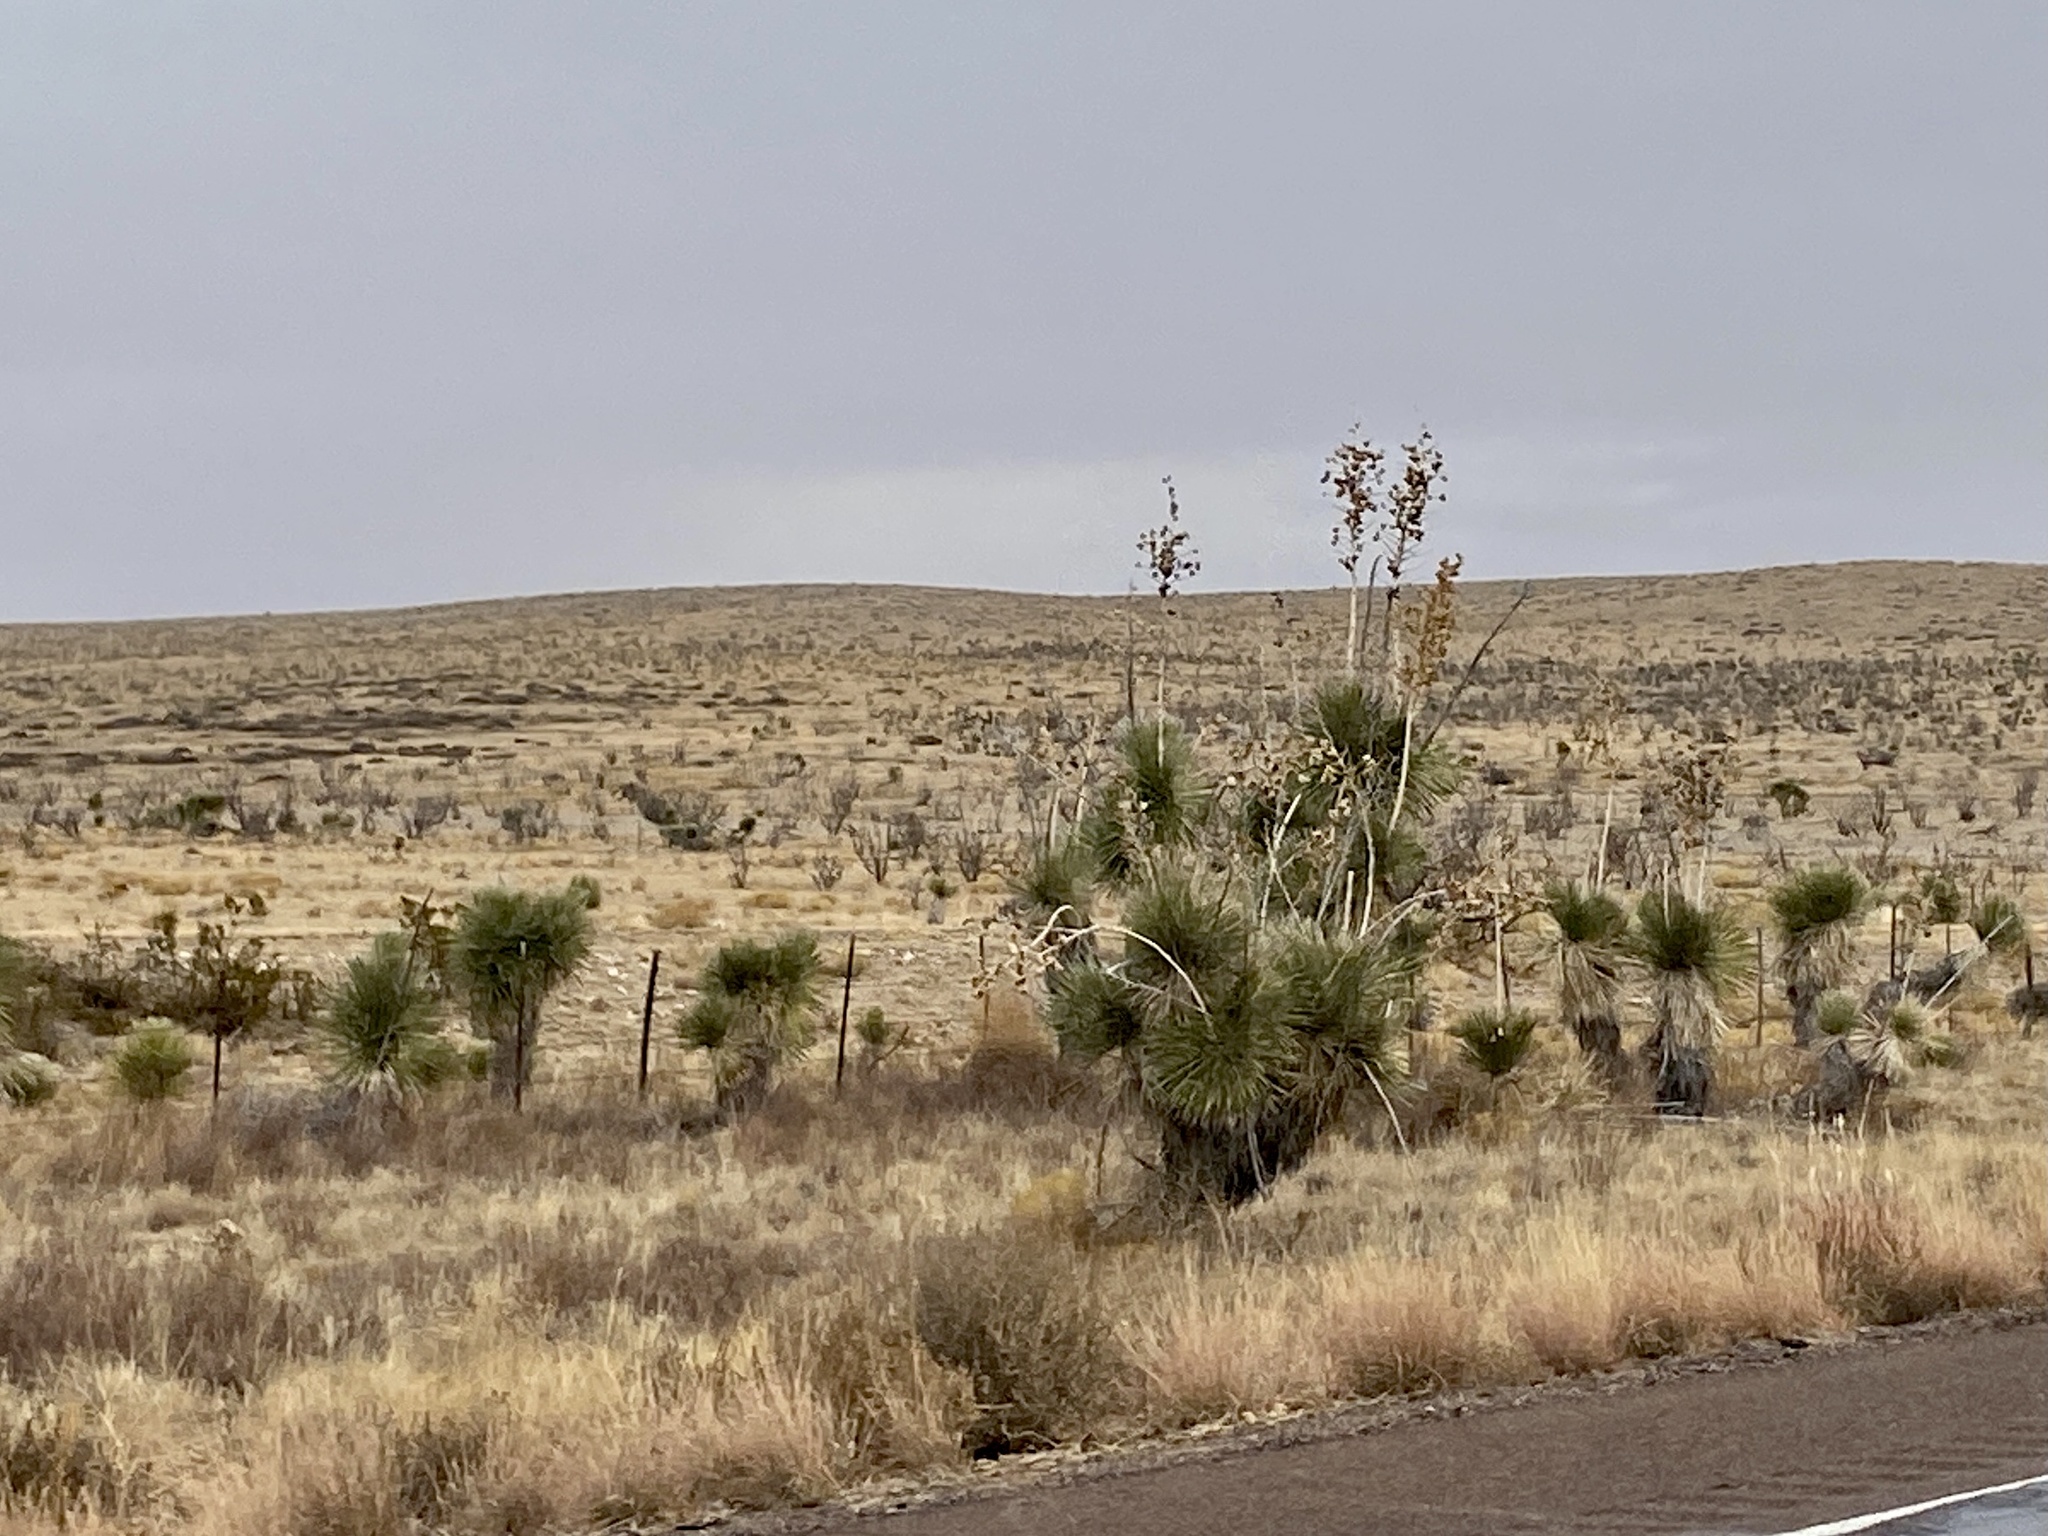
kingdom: Plantae
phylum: Tracheophyta
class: Liliopsida
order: Asparagales
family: Asparagaceae
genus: Yucca
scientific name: Yucca elata
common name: Palmella
